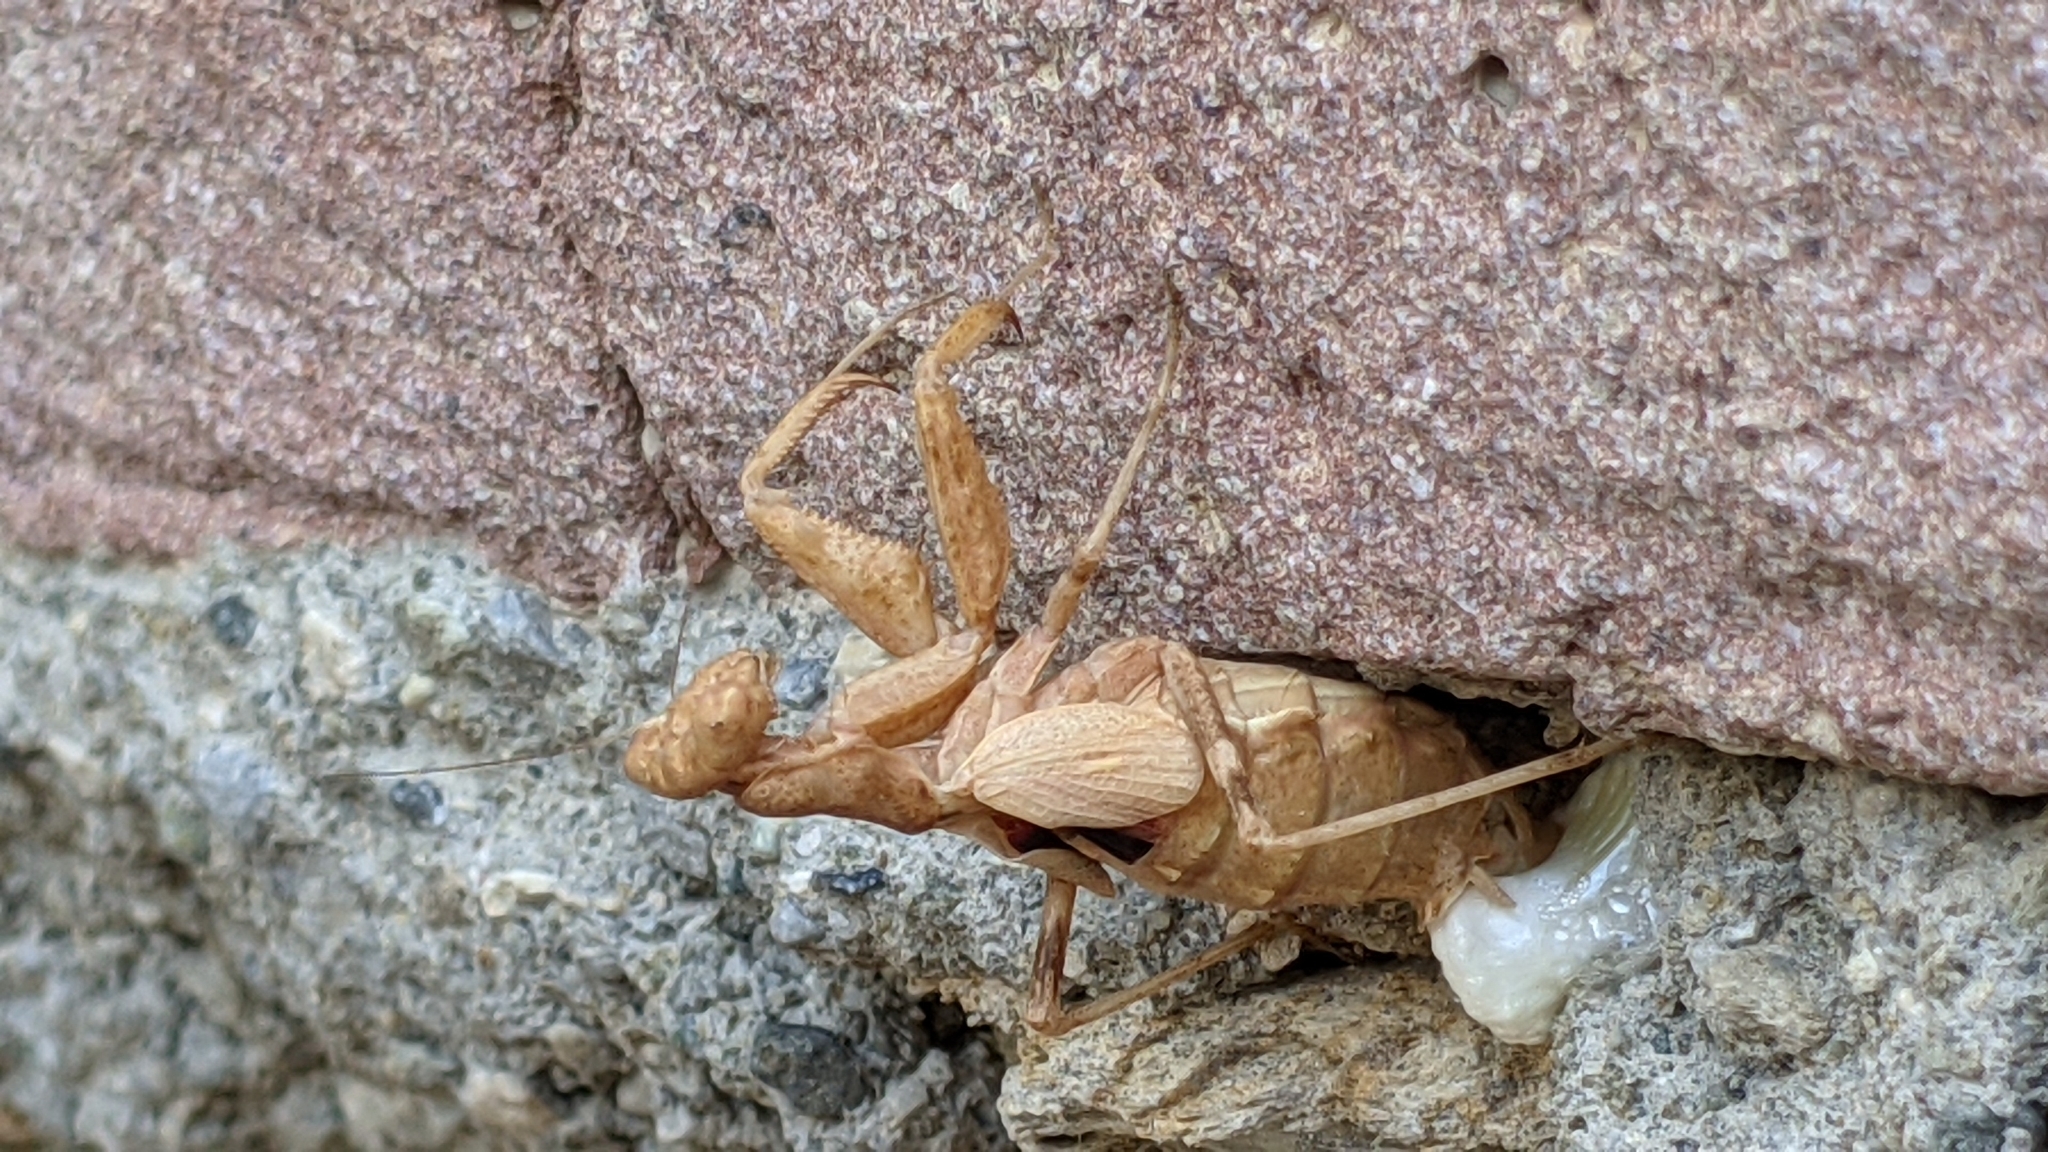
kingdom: Animalia
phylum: Arthropoda
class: Insecta
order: Mantodea
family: Amelidae
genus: Ameles
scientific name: Ameles spallanzania
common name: European dwarf mantis
